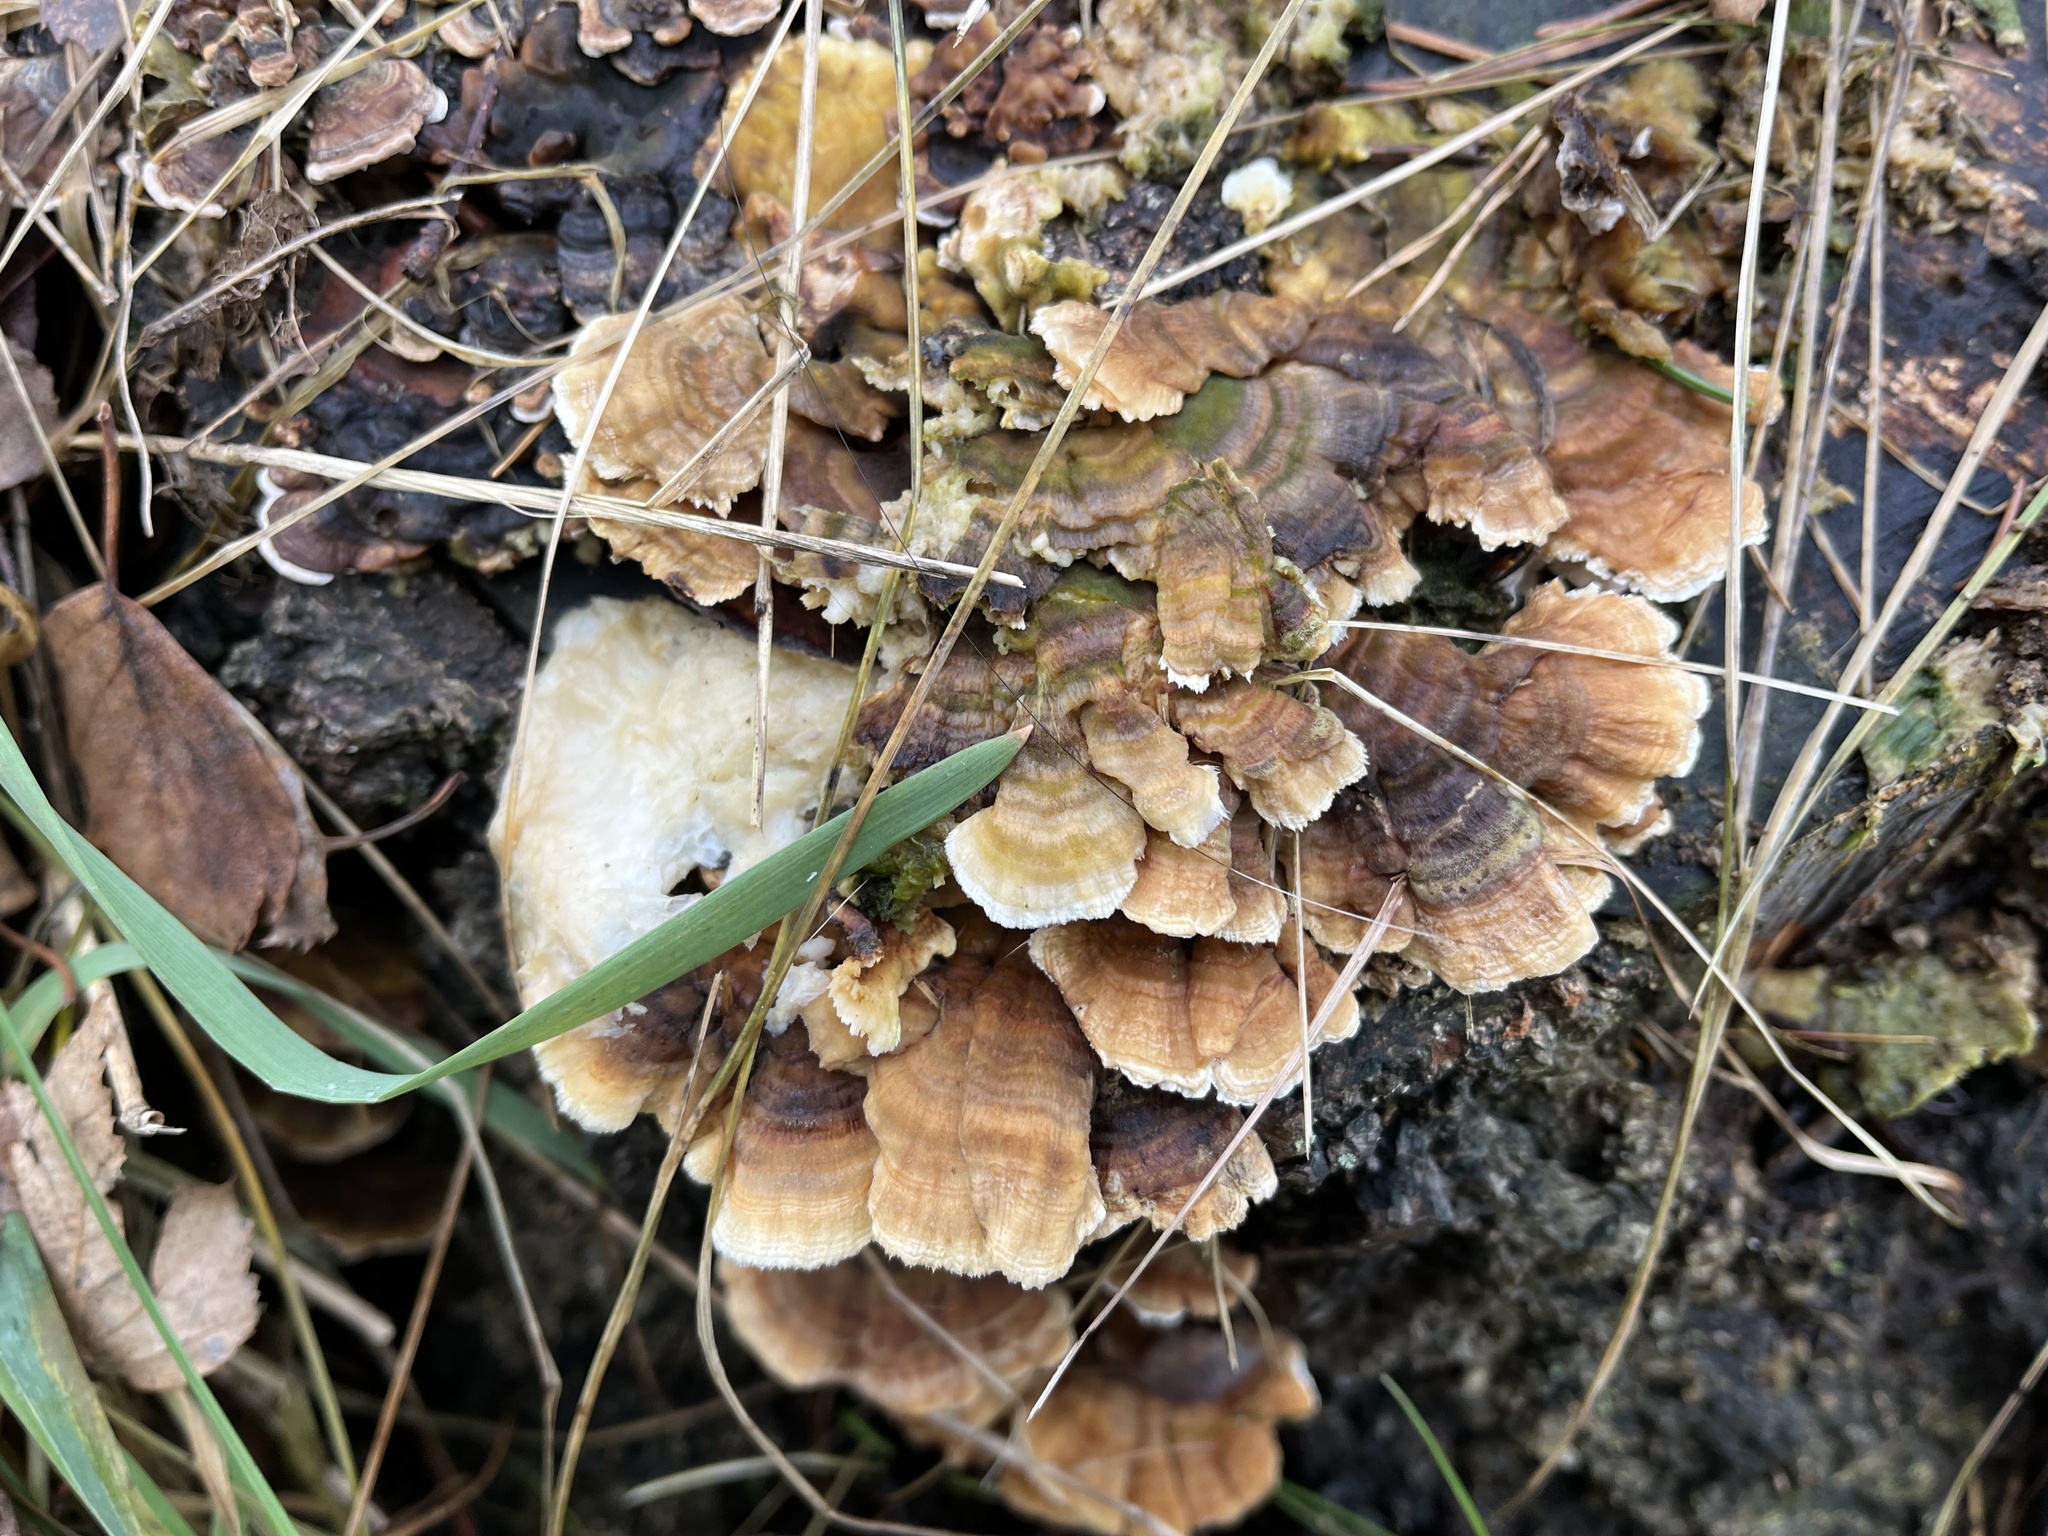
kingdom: Fungi
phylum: Basidiomycota
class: Agaricomycetes
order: Polyporales
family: Polyporaceae
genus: Trametes
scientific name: Trametes ochracea
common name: Ochre bracket
